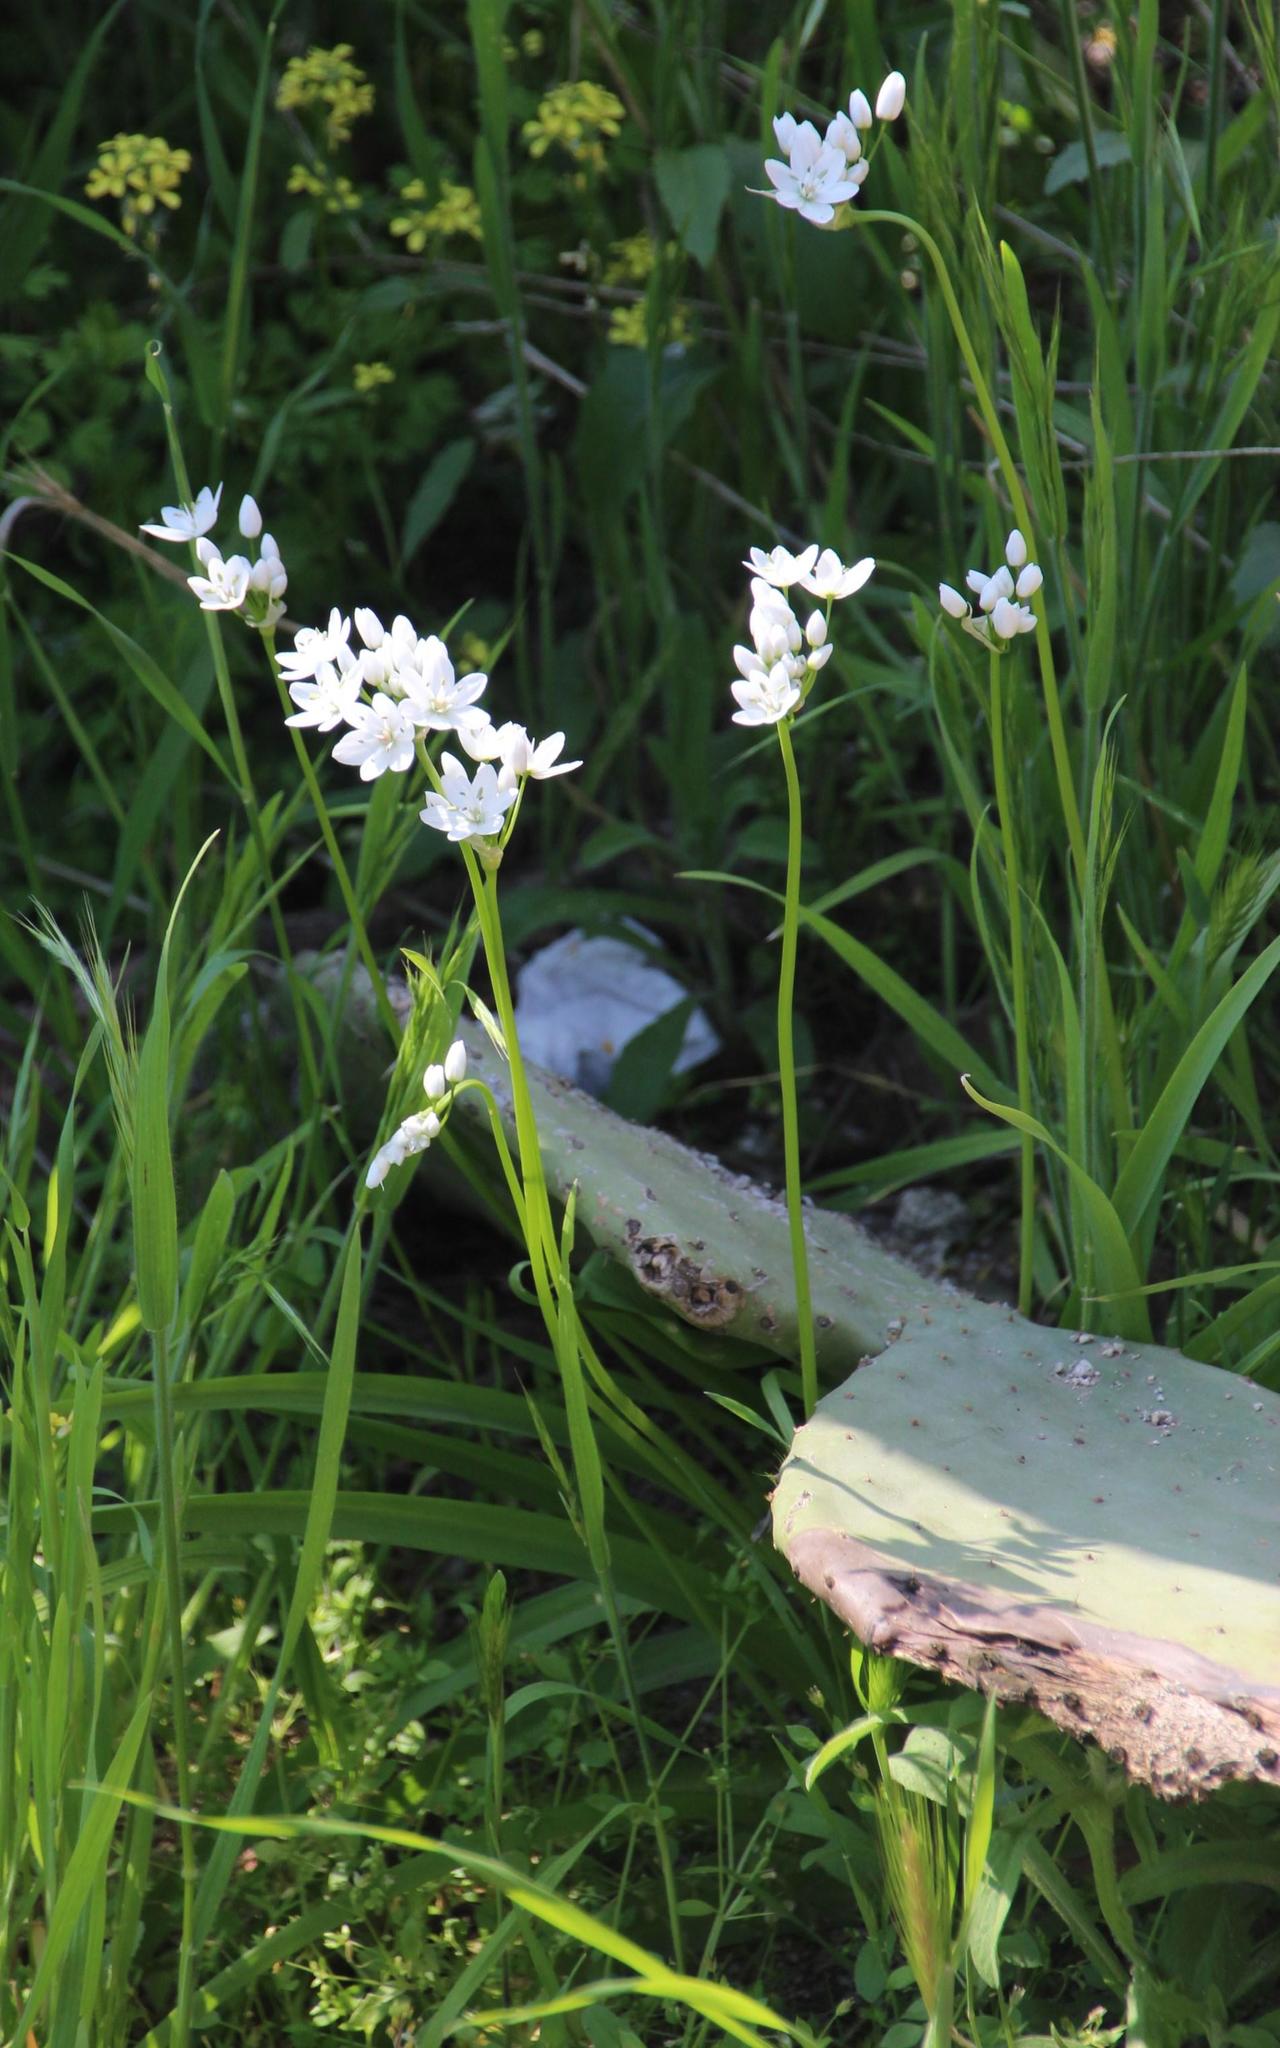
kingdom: Plantae
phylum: Tracheophyta
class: Liliopsida
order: Asparagales
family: Amaryllidaceae
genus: Allium
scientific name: Allium neapolitanum
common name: Neapolitan garlic
